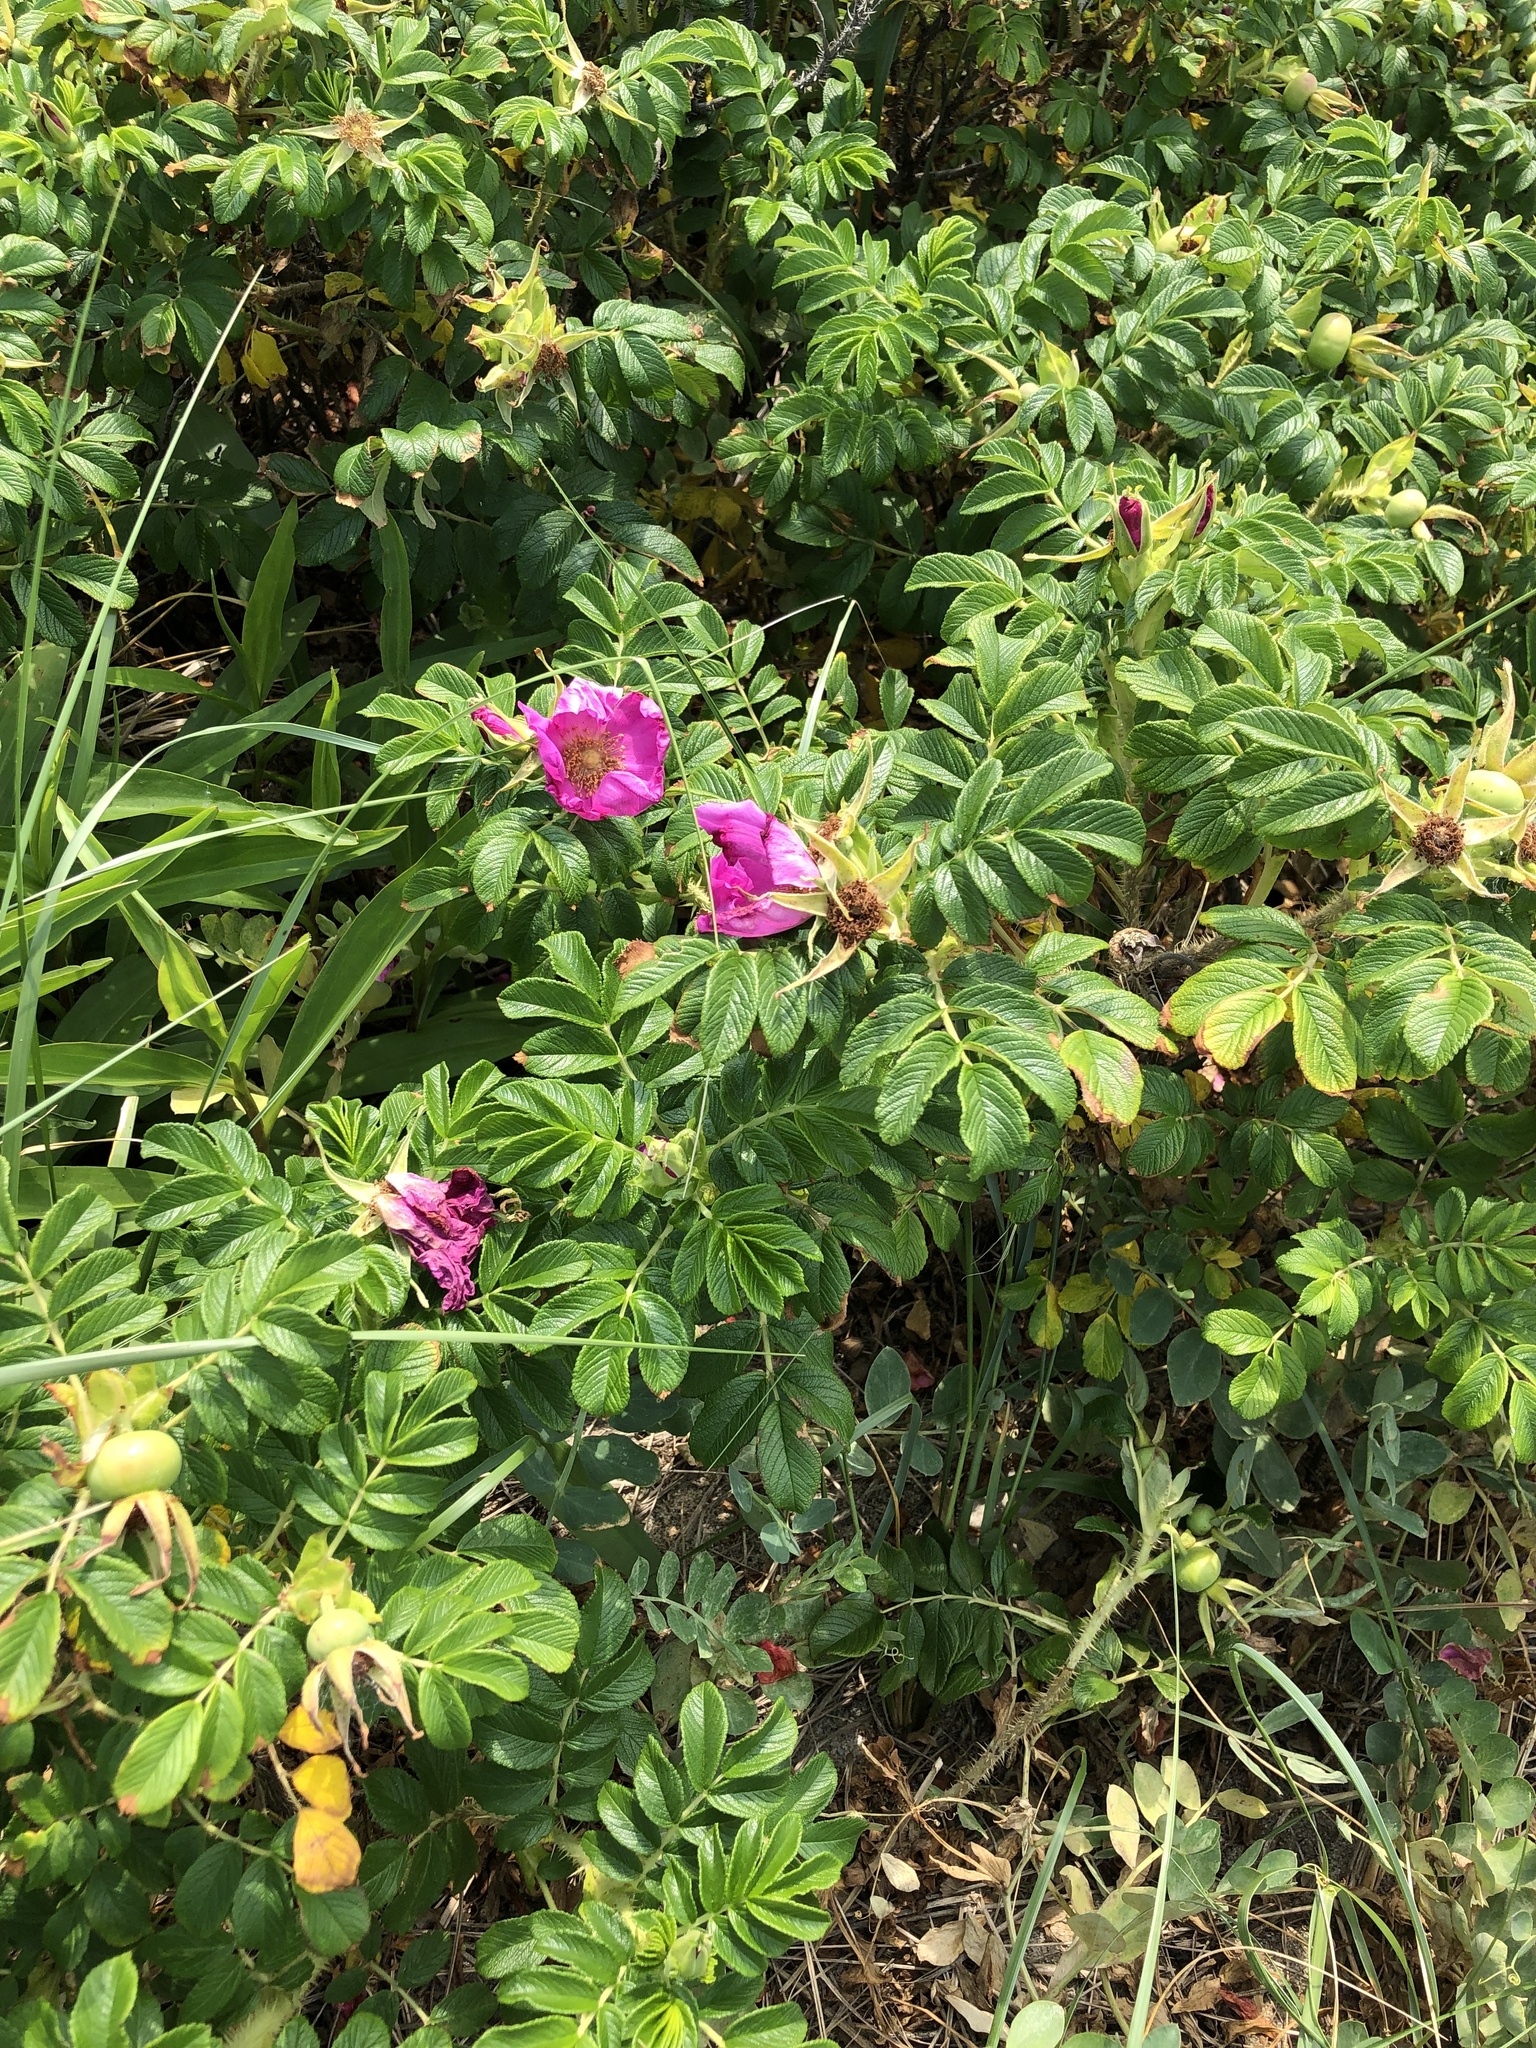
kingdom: Plantae
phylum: Tracheophyta
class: Magnoliopsida
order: Rosales
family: Rosaceae
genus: Rosa
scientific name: Rosa rugosa
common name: Japanese rose
